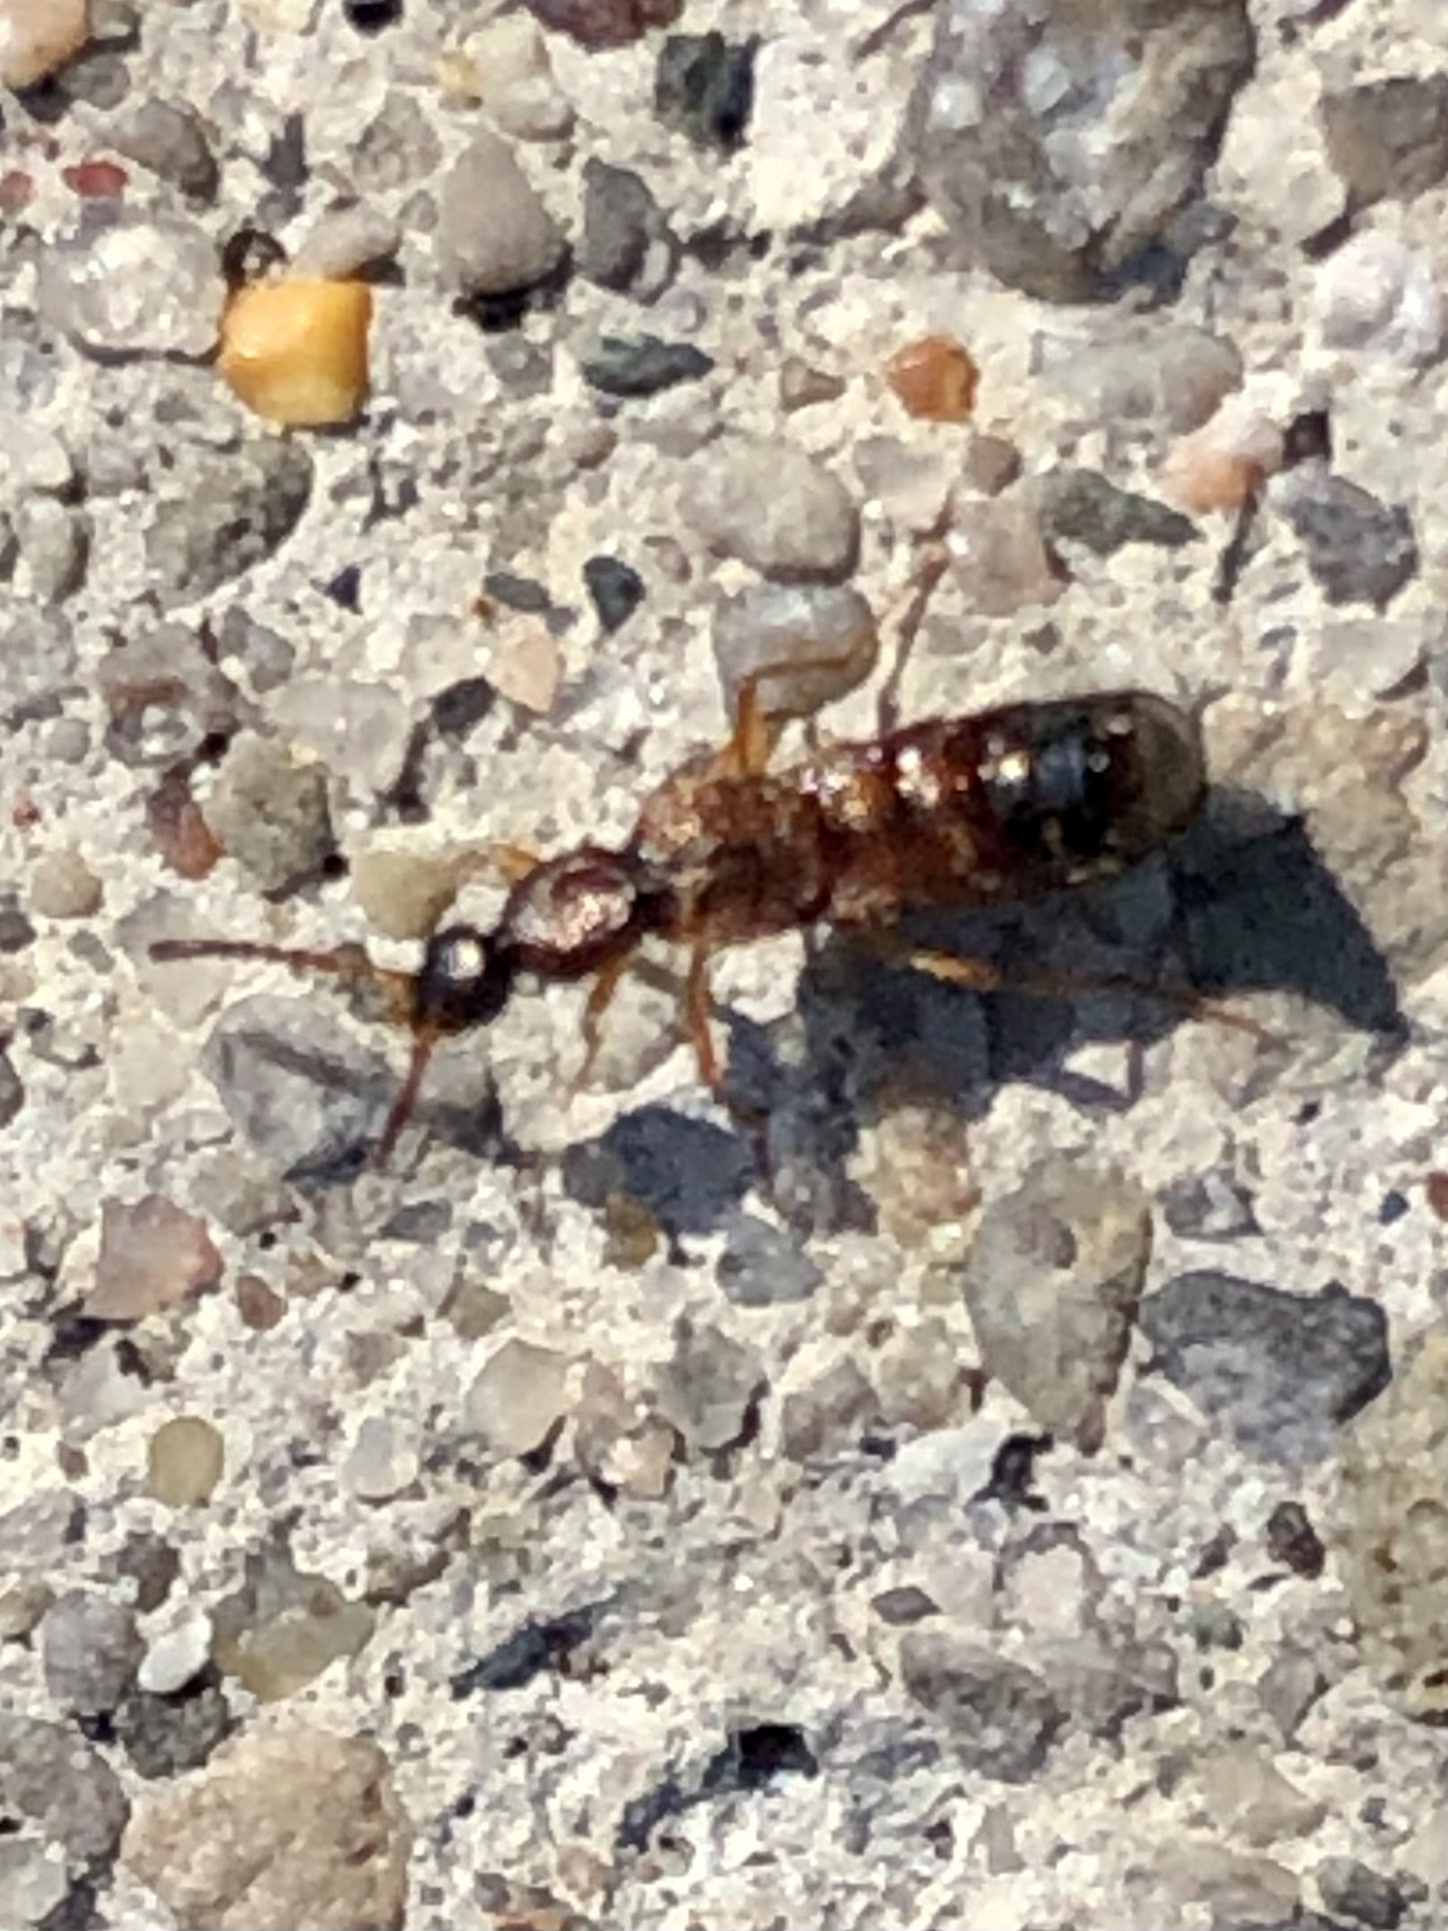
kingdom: Animalia
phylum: Arthropoda
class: Insecta
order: Coleoptera
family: Staphylinidae
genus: Drusilla
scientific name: Drusilla canaliculata
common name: Rove beetle
